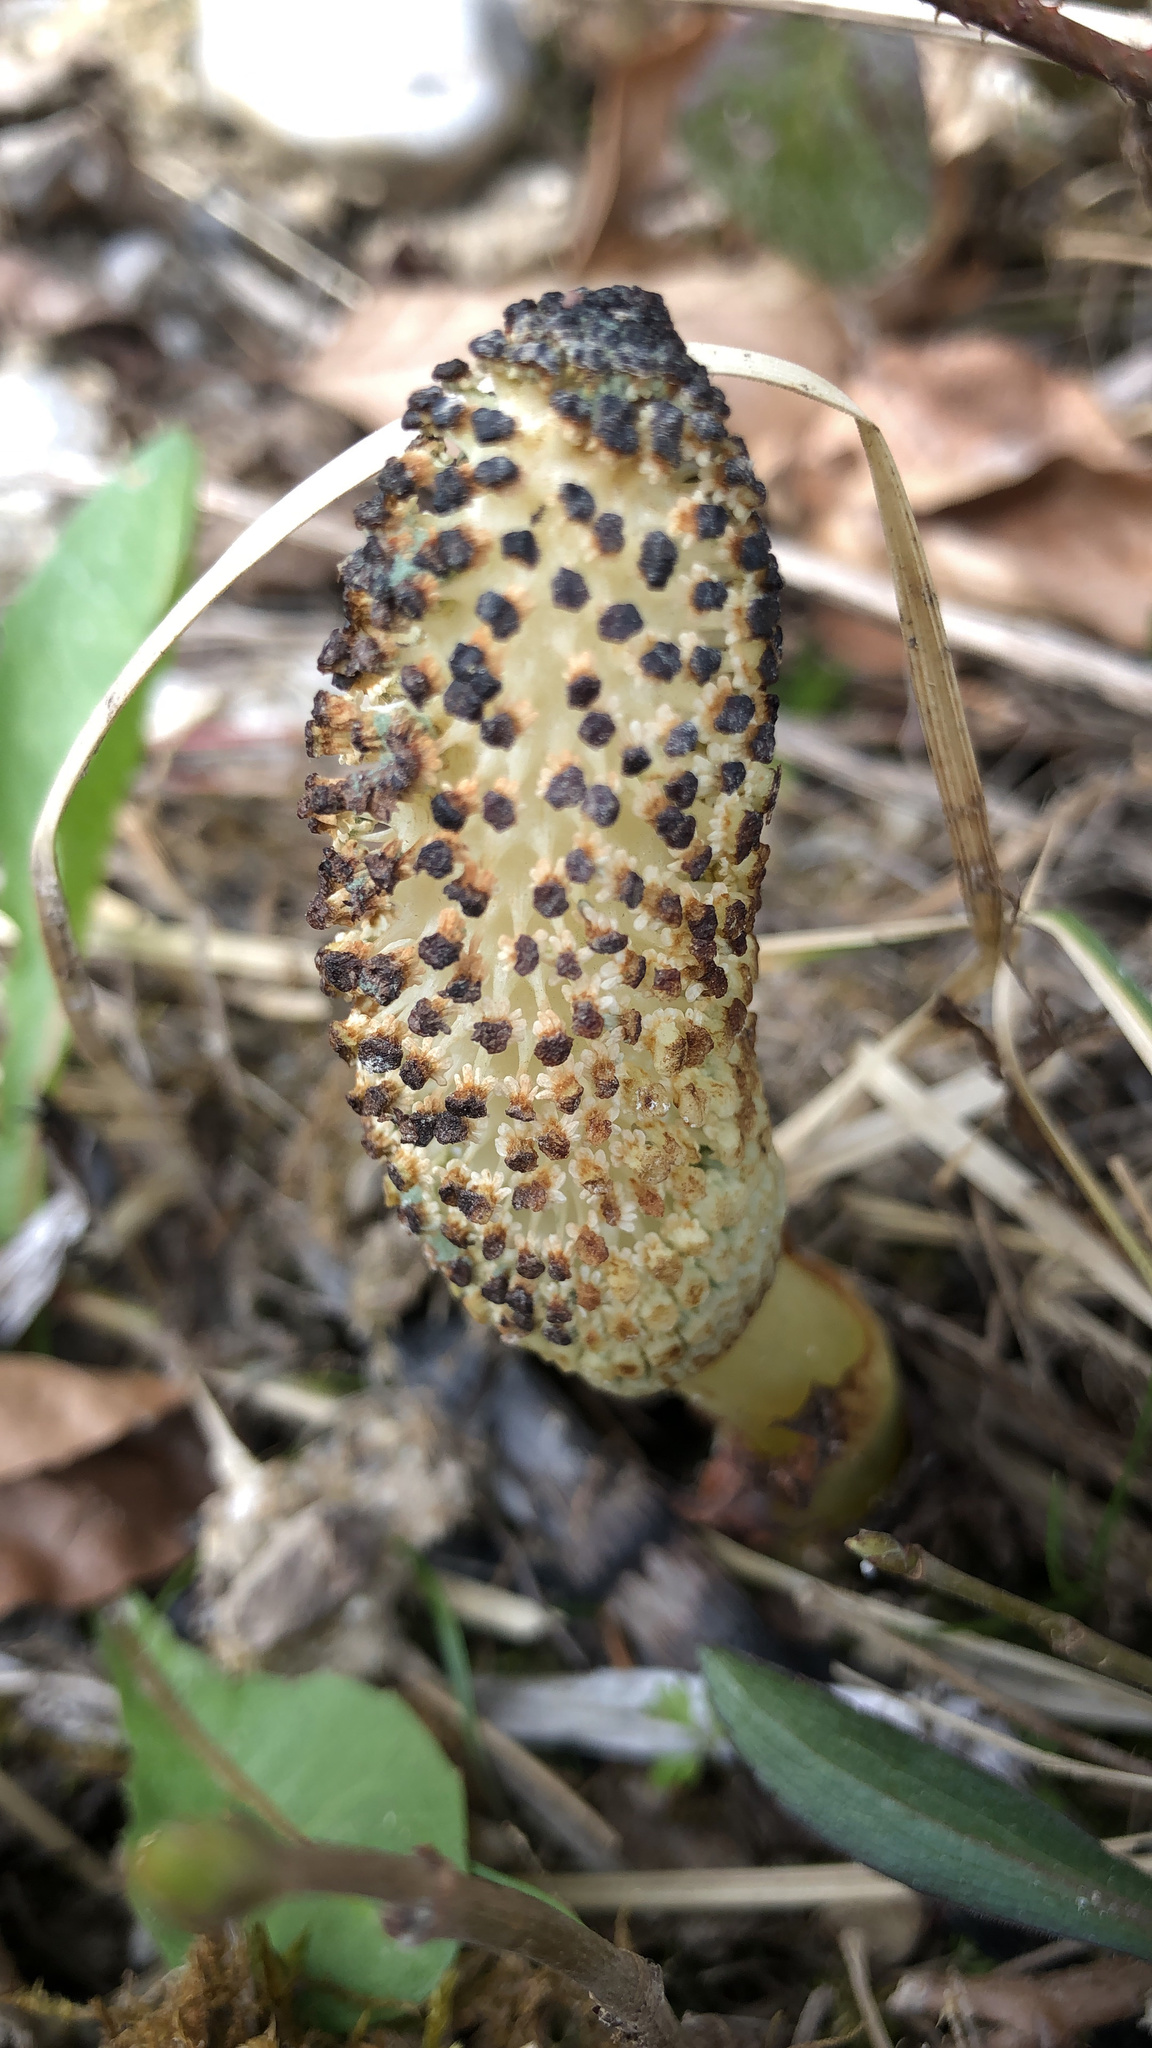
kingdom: Plantae
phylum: Tracheophyta
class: Polypodiopsida
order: Equisetales
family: Equisetaceae
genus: Equisetum
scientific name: Equisetum telmateia
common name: Great horsetail
